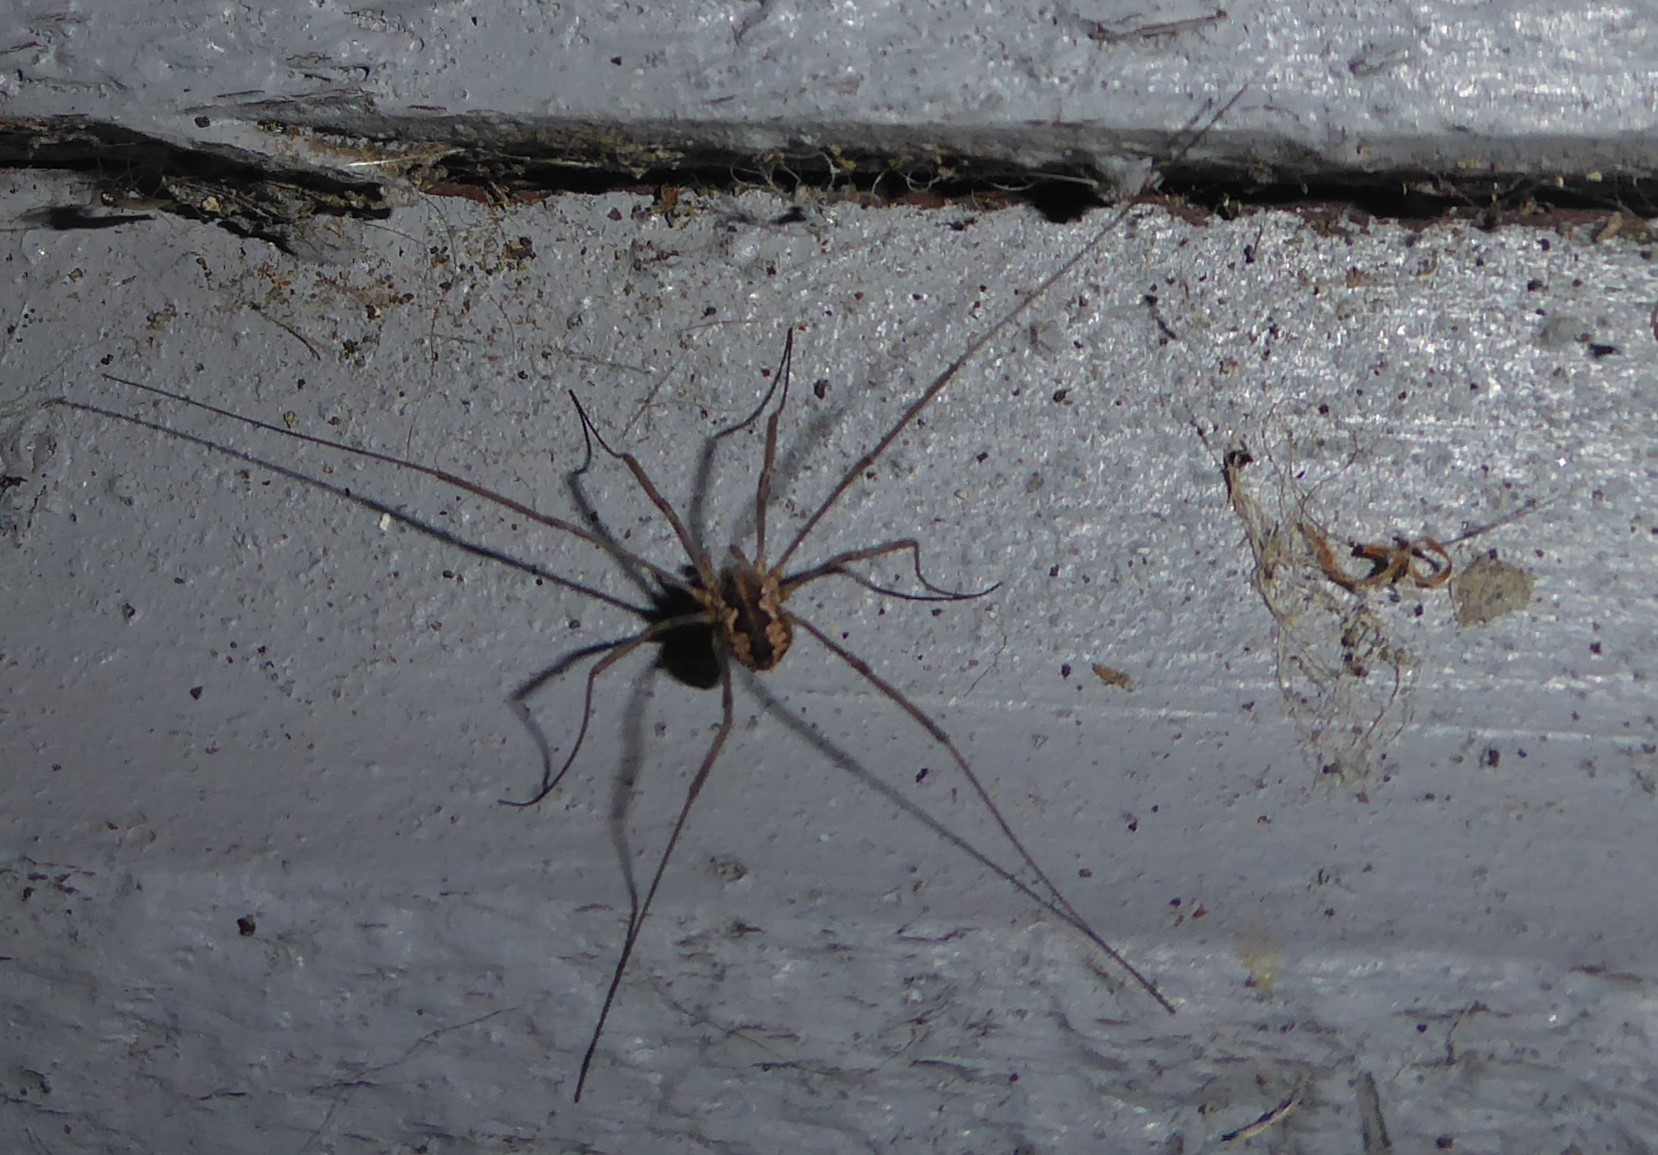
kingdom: Animalia
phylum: Arthropoda
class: Arachnida
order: Opiliones
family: Phalangiidae
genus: Phalangium
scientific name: Phalangium opilio
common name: Daddy longleg
